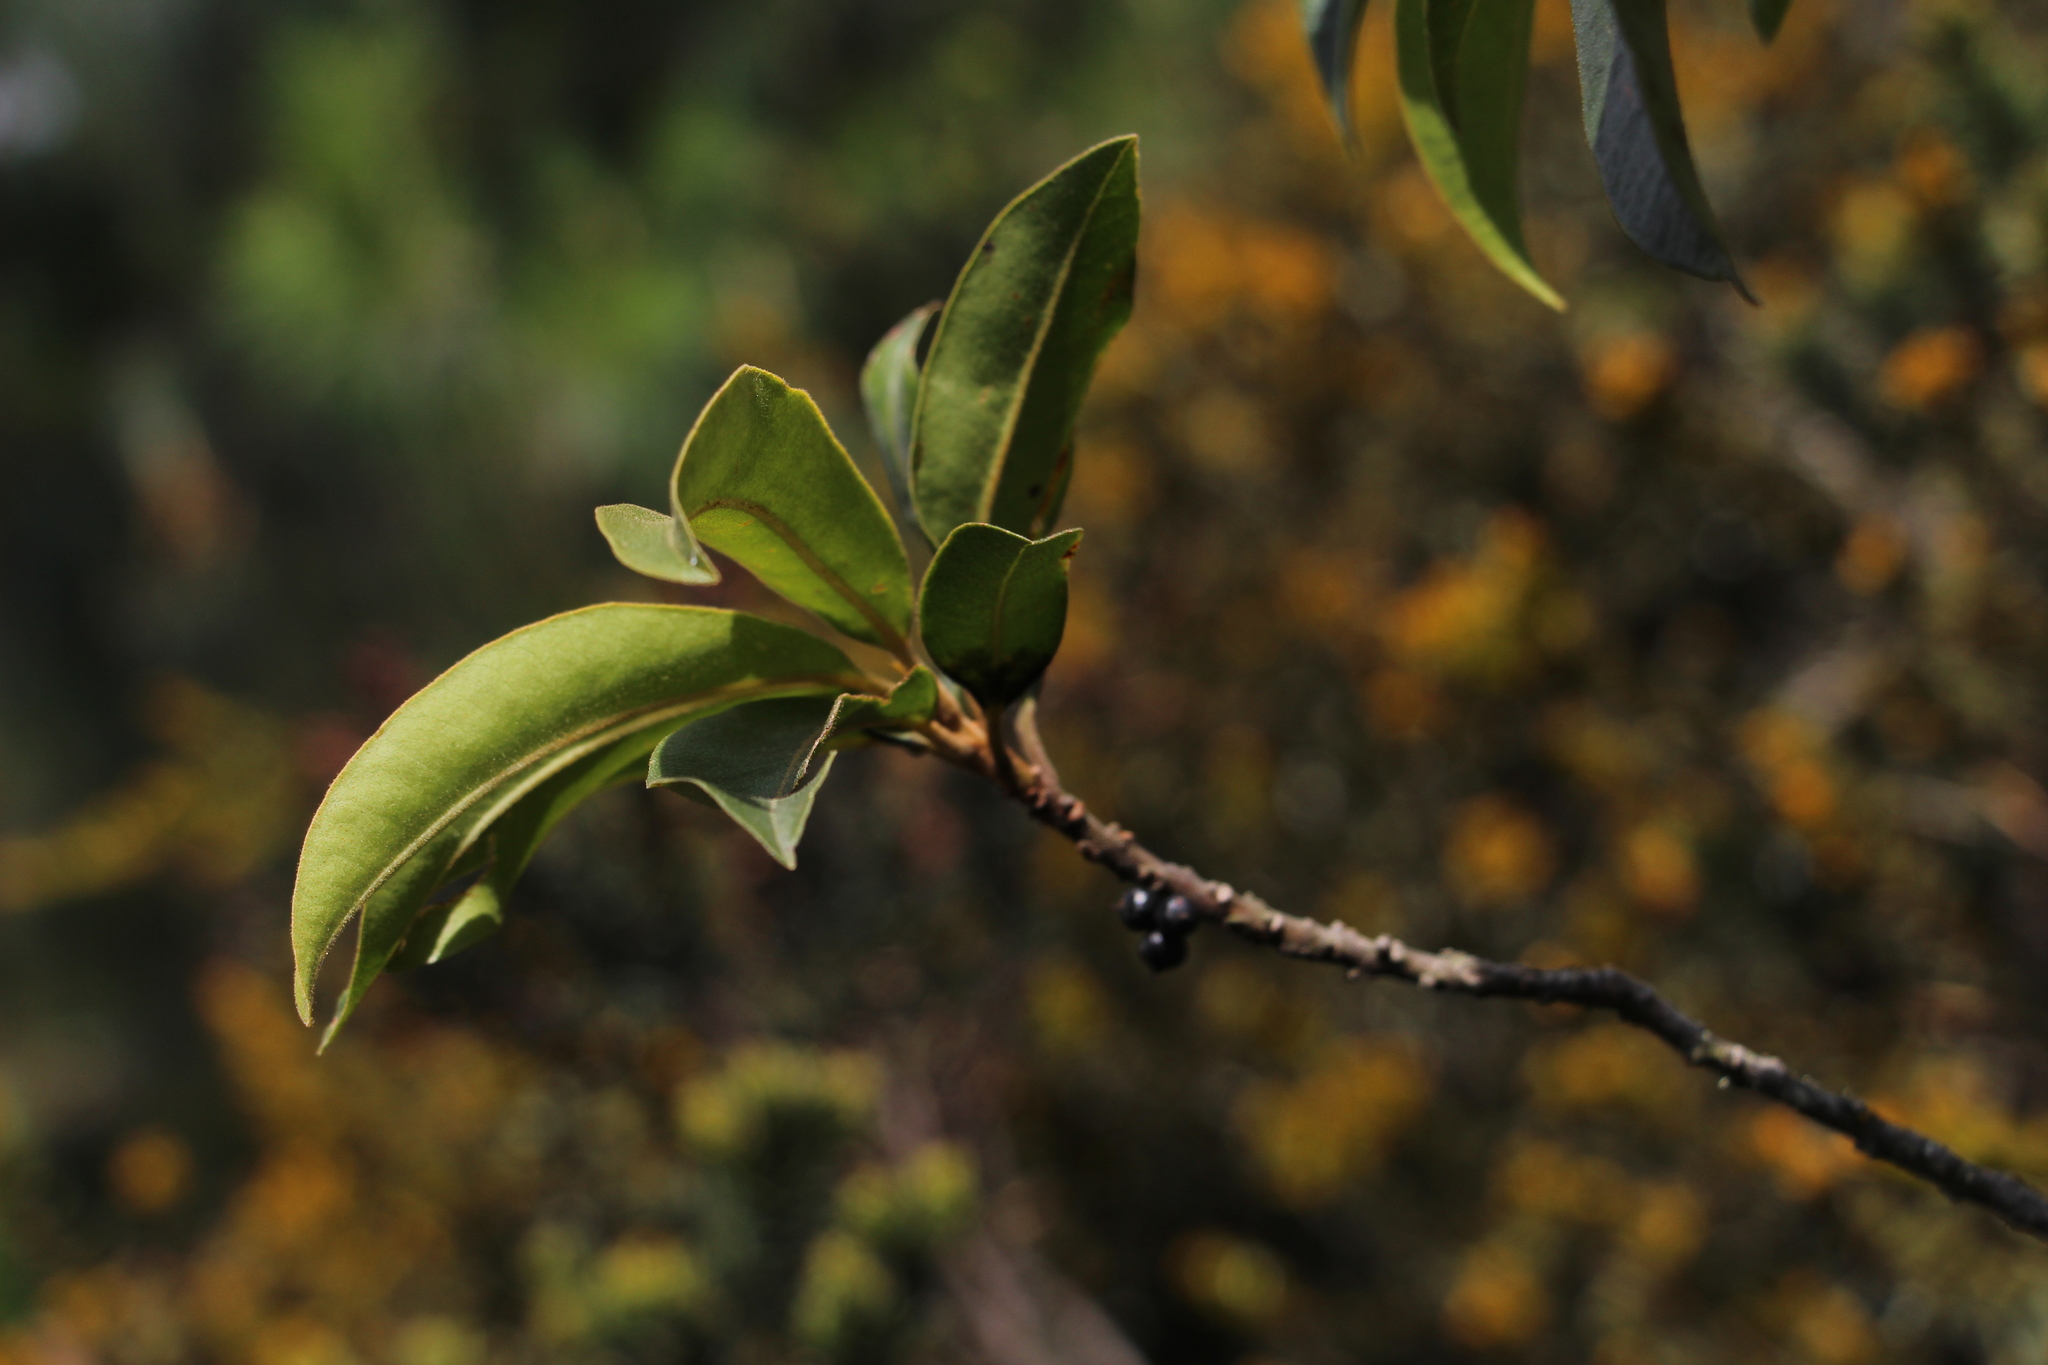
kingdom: Plantae
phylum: Tracheophyta
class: Magnoliopsida
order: Ericales
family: Primulaceae
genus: Myrsine
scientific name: Myrsine coriacea
